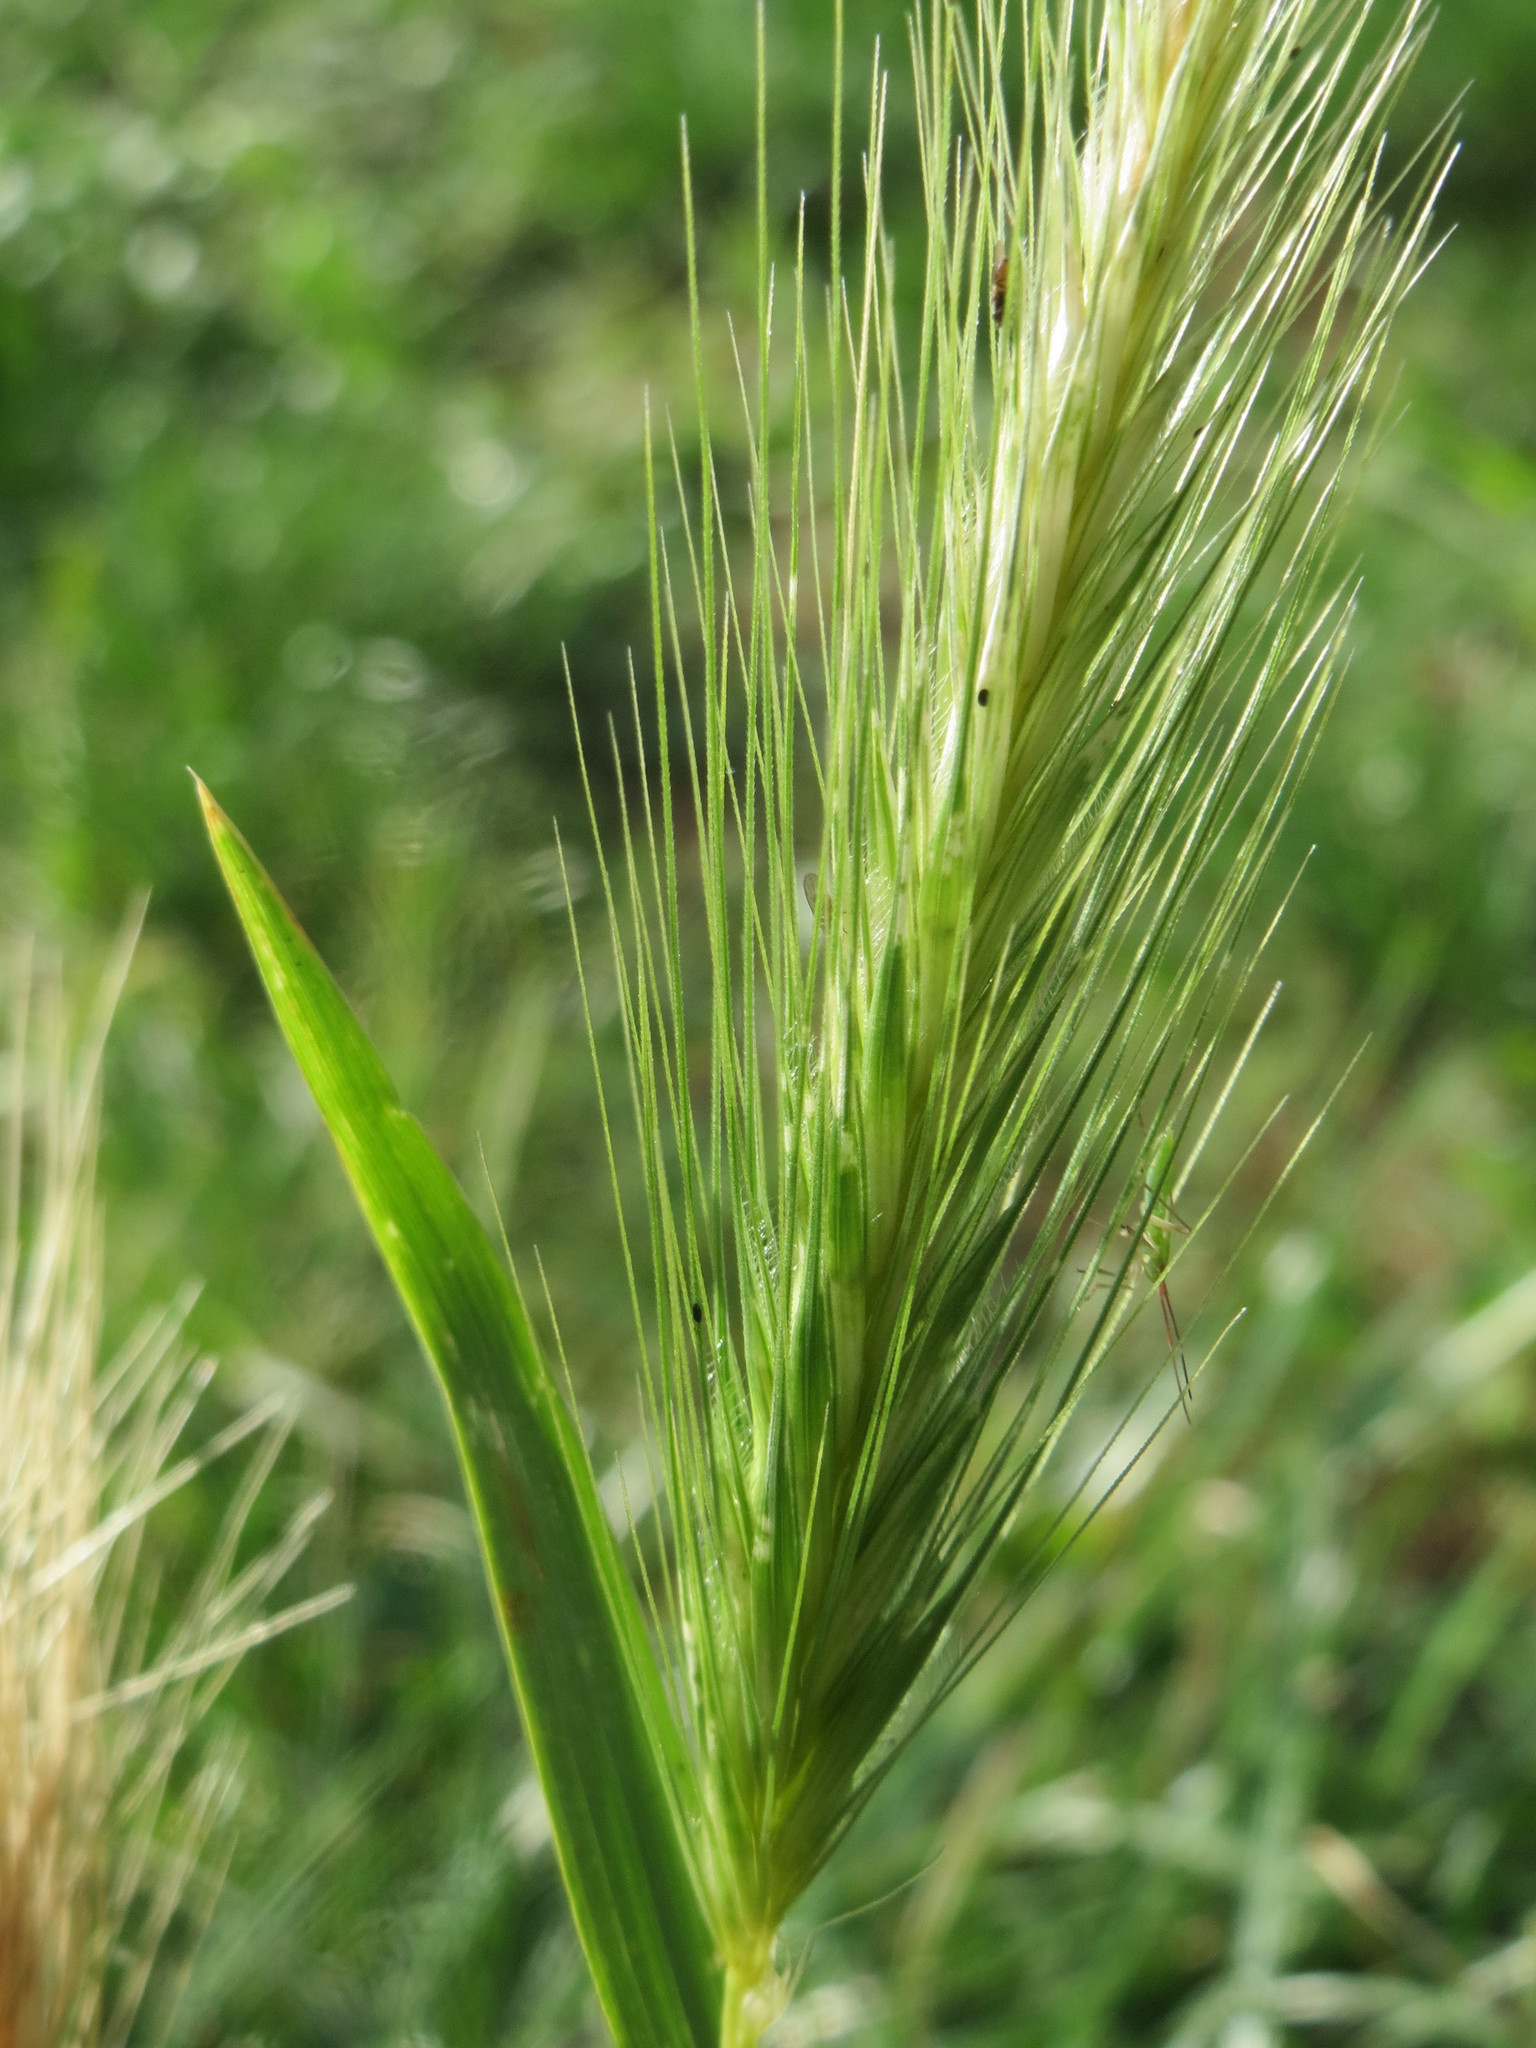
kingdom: Plantae
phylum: Tracheophyta
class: Liliopsida
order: Poales
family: Poaceae
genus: Hordeum
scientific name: Hordeum murinum
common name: Wall barley
